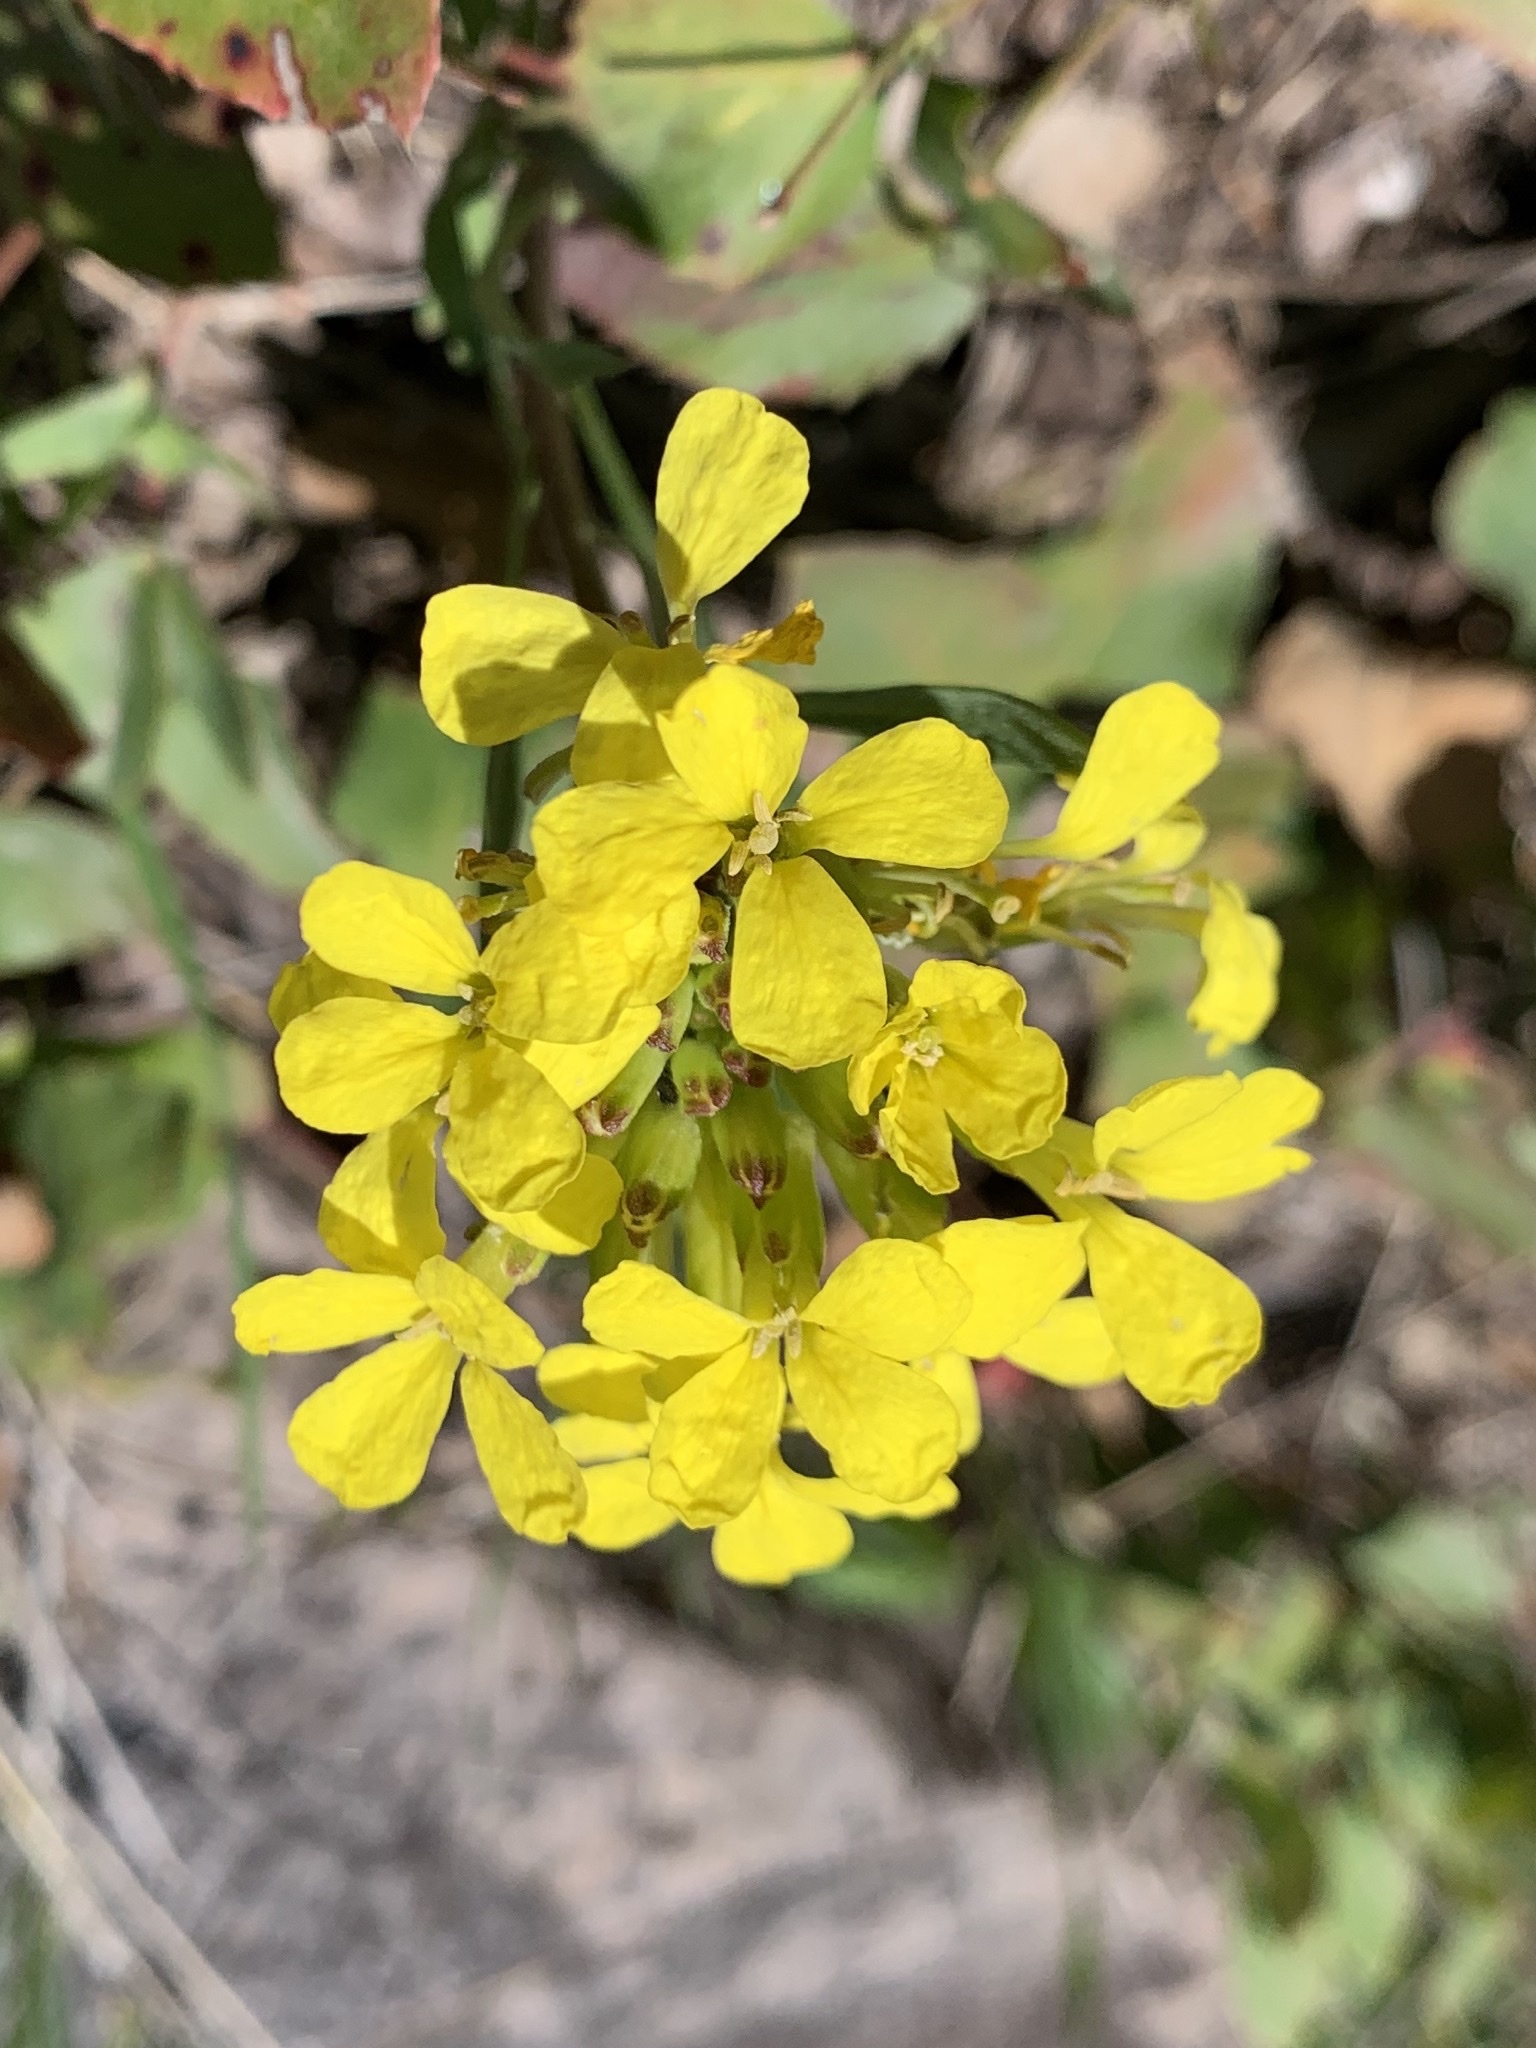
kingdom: Plantae
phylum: Tracheophyta
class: Magnoliopsida
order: Brassicales
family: Brassicaceae
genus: Erysimum
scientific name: Erysimum capitatum
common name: Western wallflower
